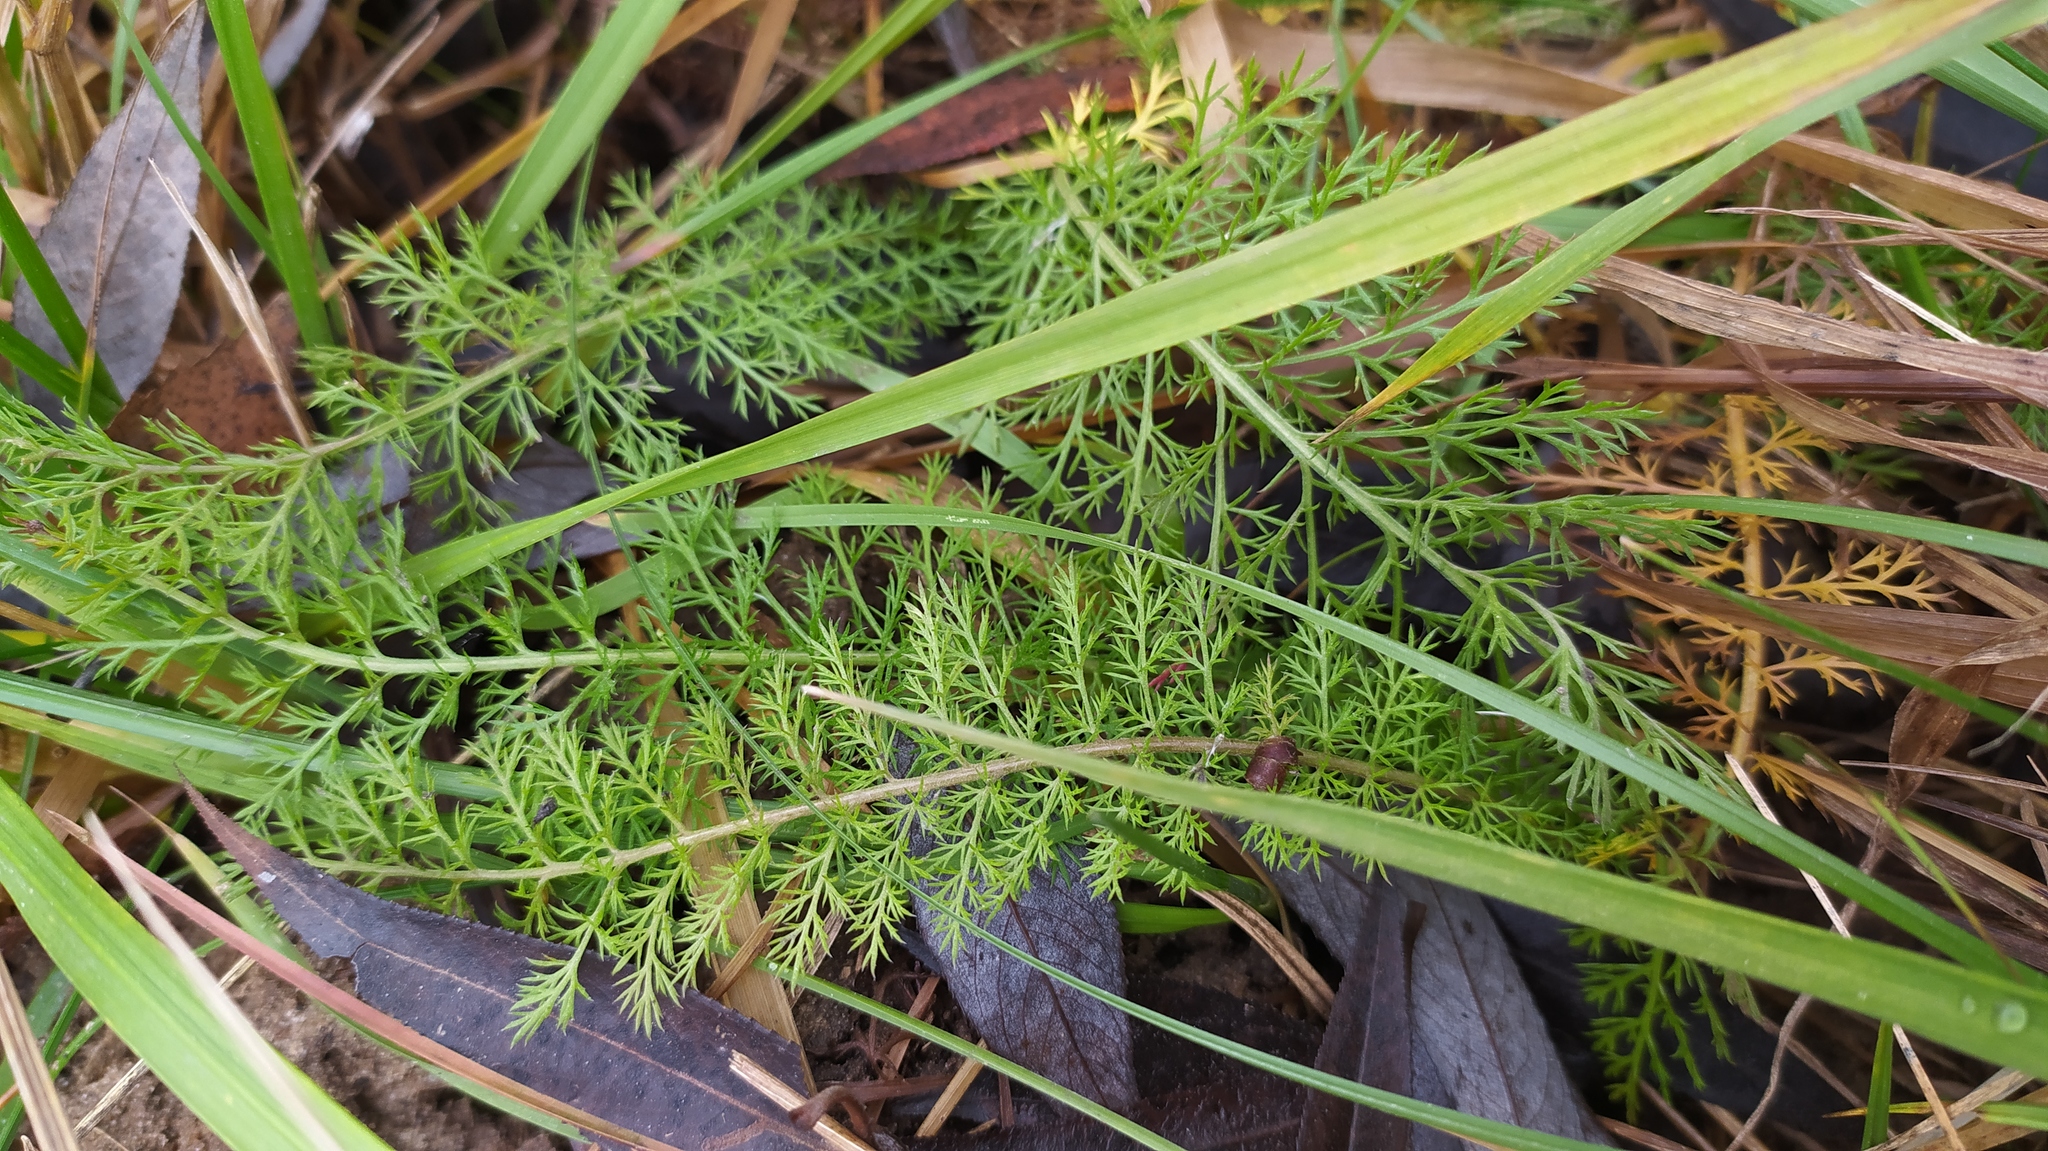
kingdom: Plantae
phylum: Tracheophyta
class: Magnoliopsida
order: Asterales
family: Asteraceae
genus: Achillea
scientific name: Achillea millefolium
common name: Yarrow
